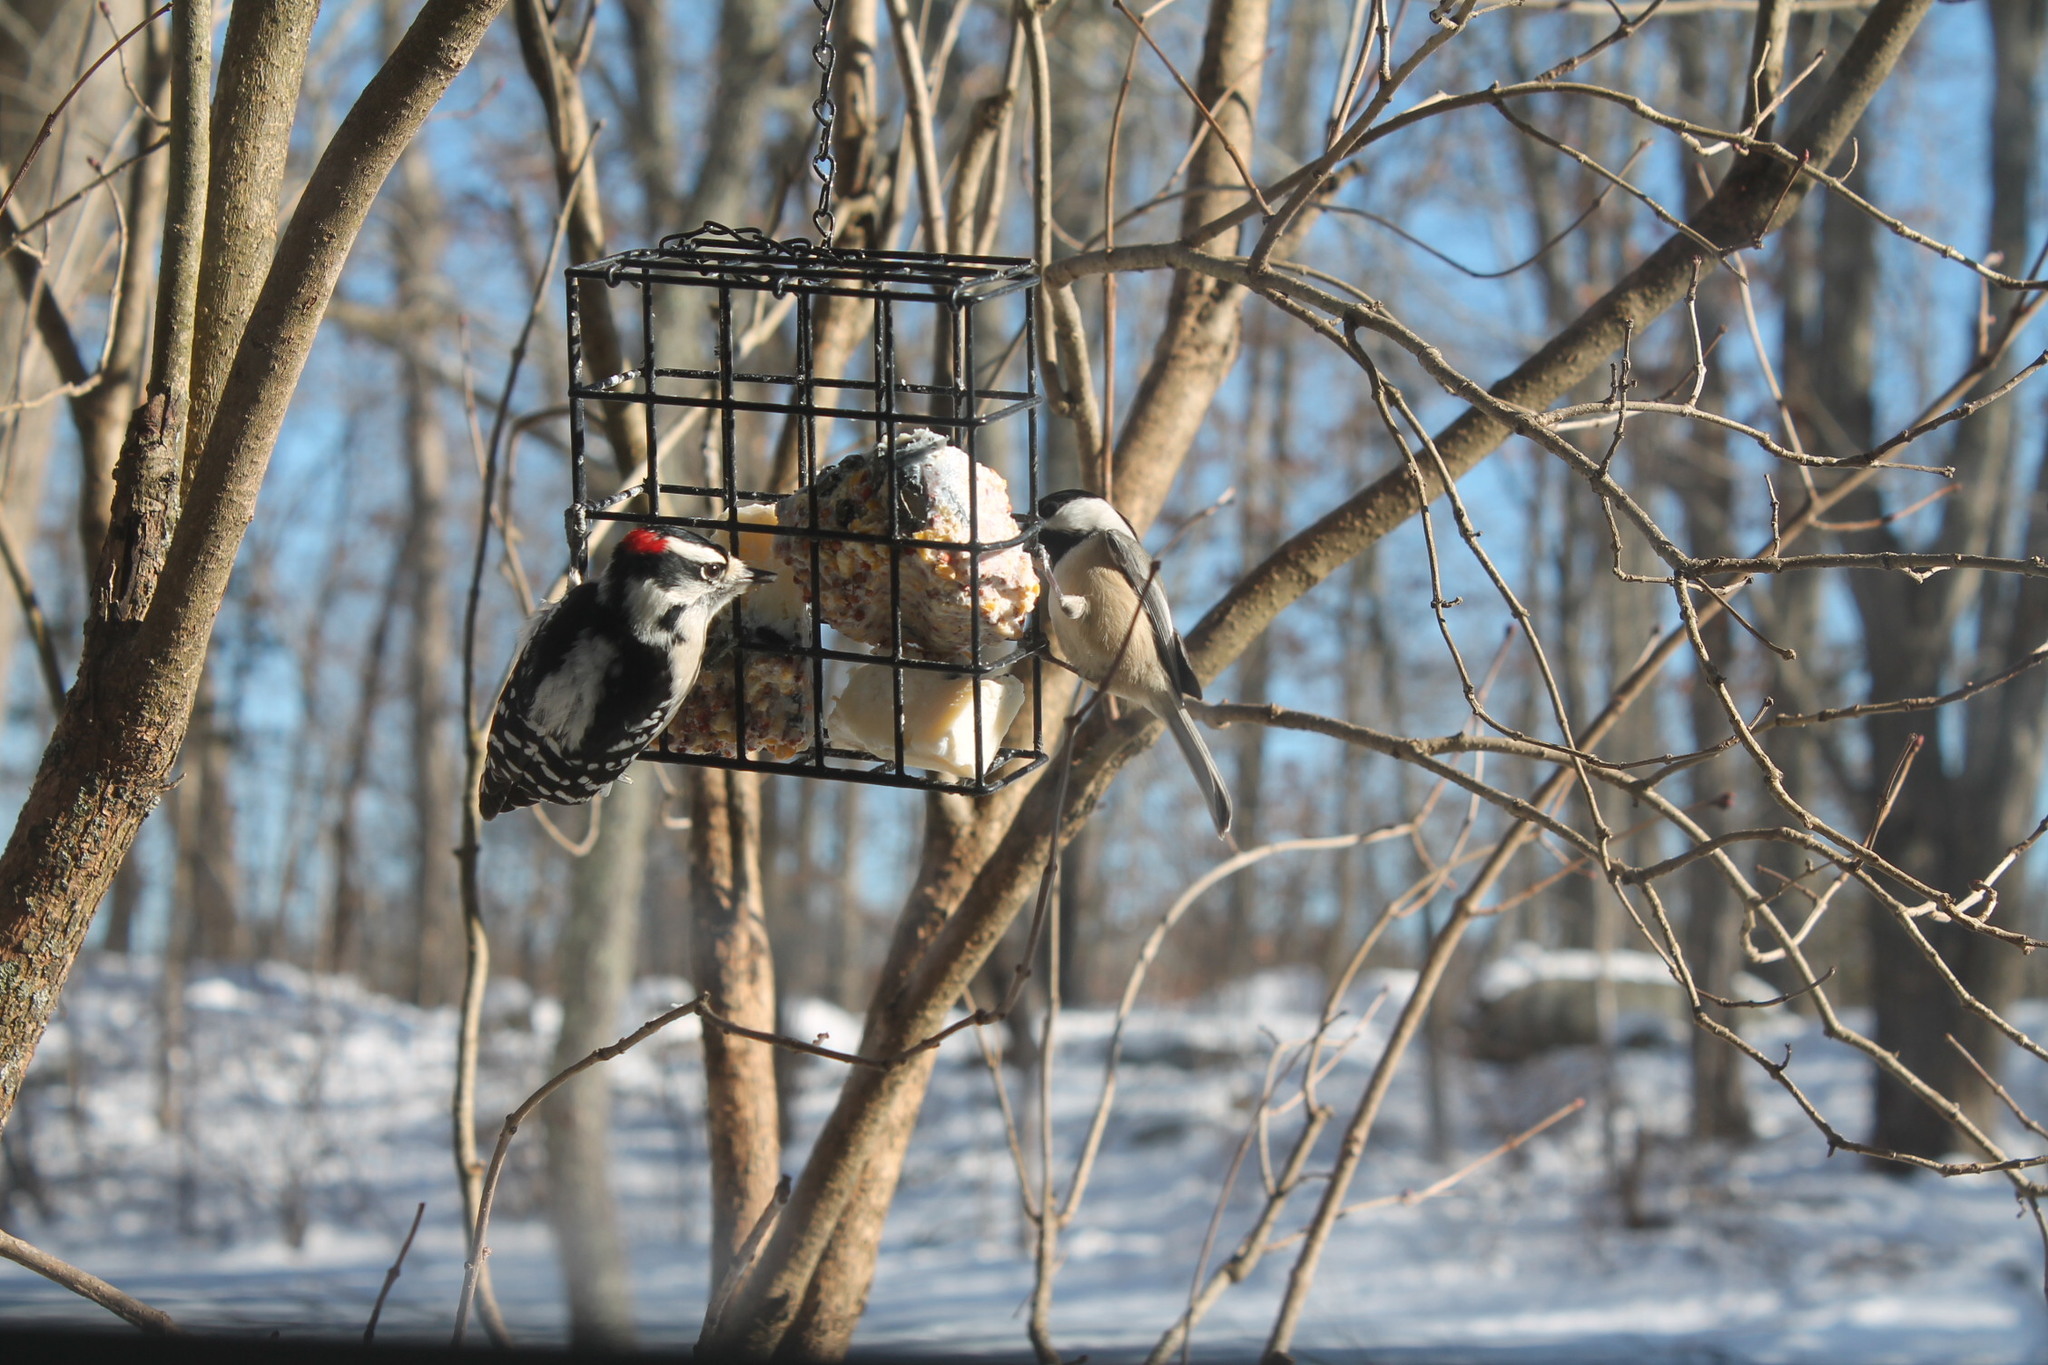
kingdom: Animalia
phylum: Chordata
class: Aves
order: Piciformes
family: Picidae
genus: Dryobates
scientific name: Dryobates pubescens
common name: Downy woodpecker
